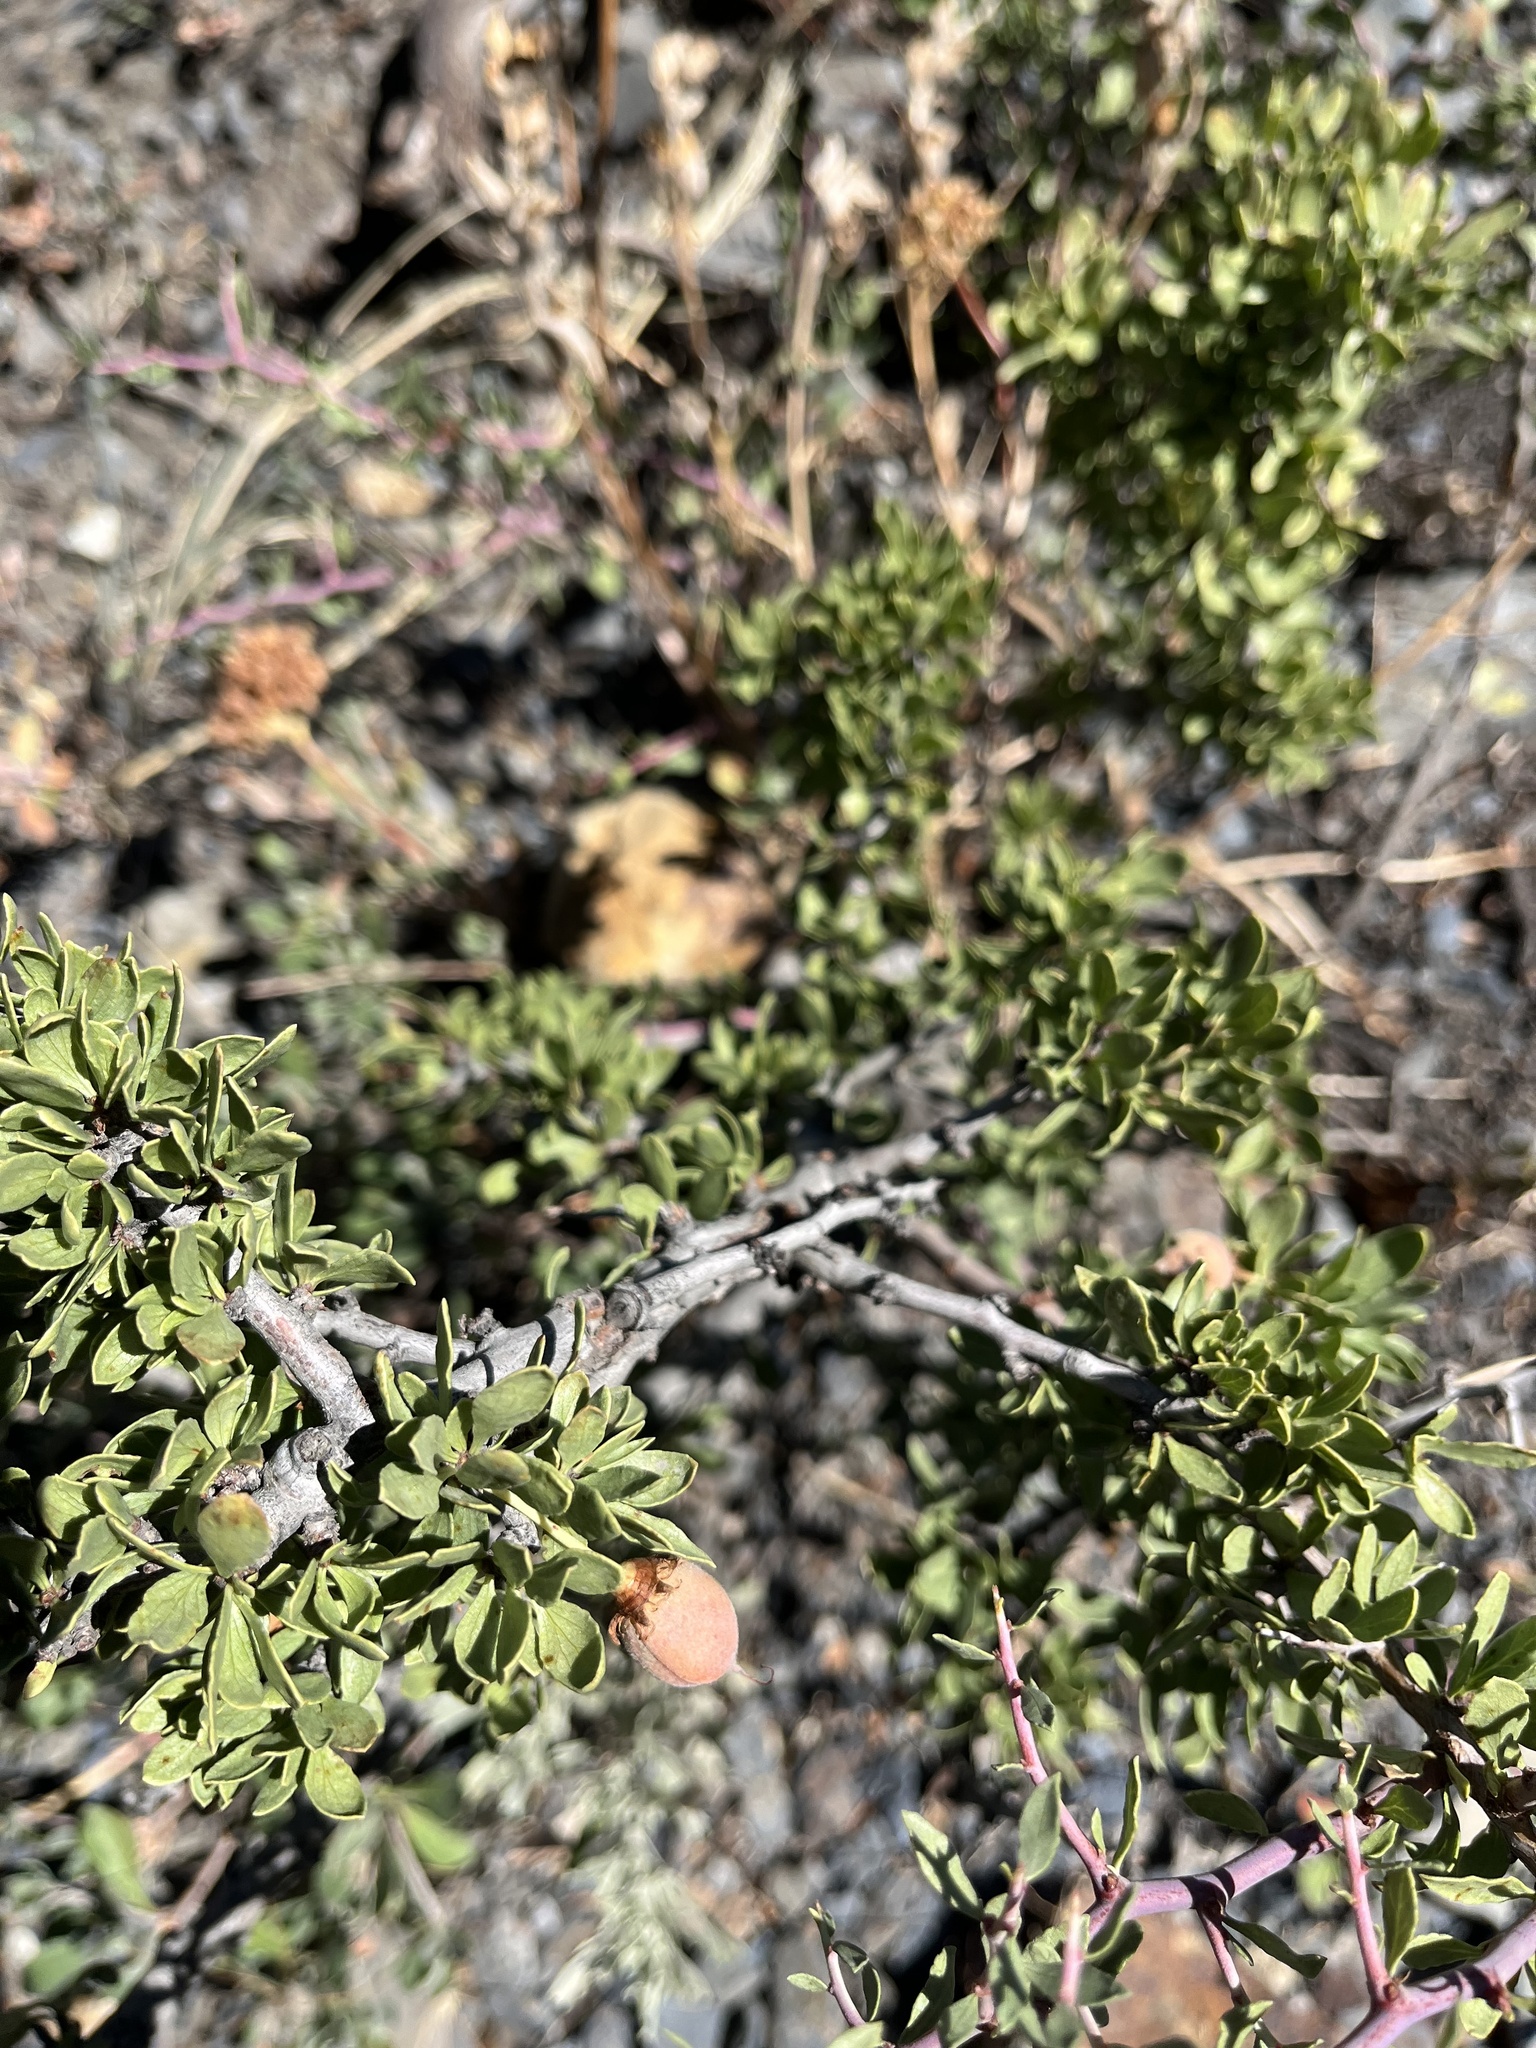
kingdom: Plantae
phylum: Tracheophyta
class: Magnoliopsida
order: Rosales
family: Rosaceae
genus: Prunus
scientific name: Prunus andersonii
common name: Desert peach
